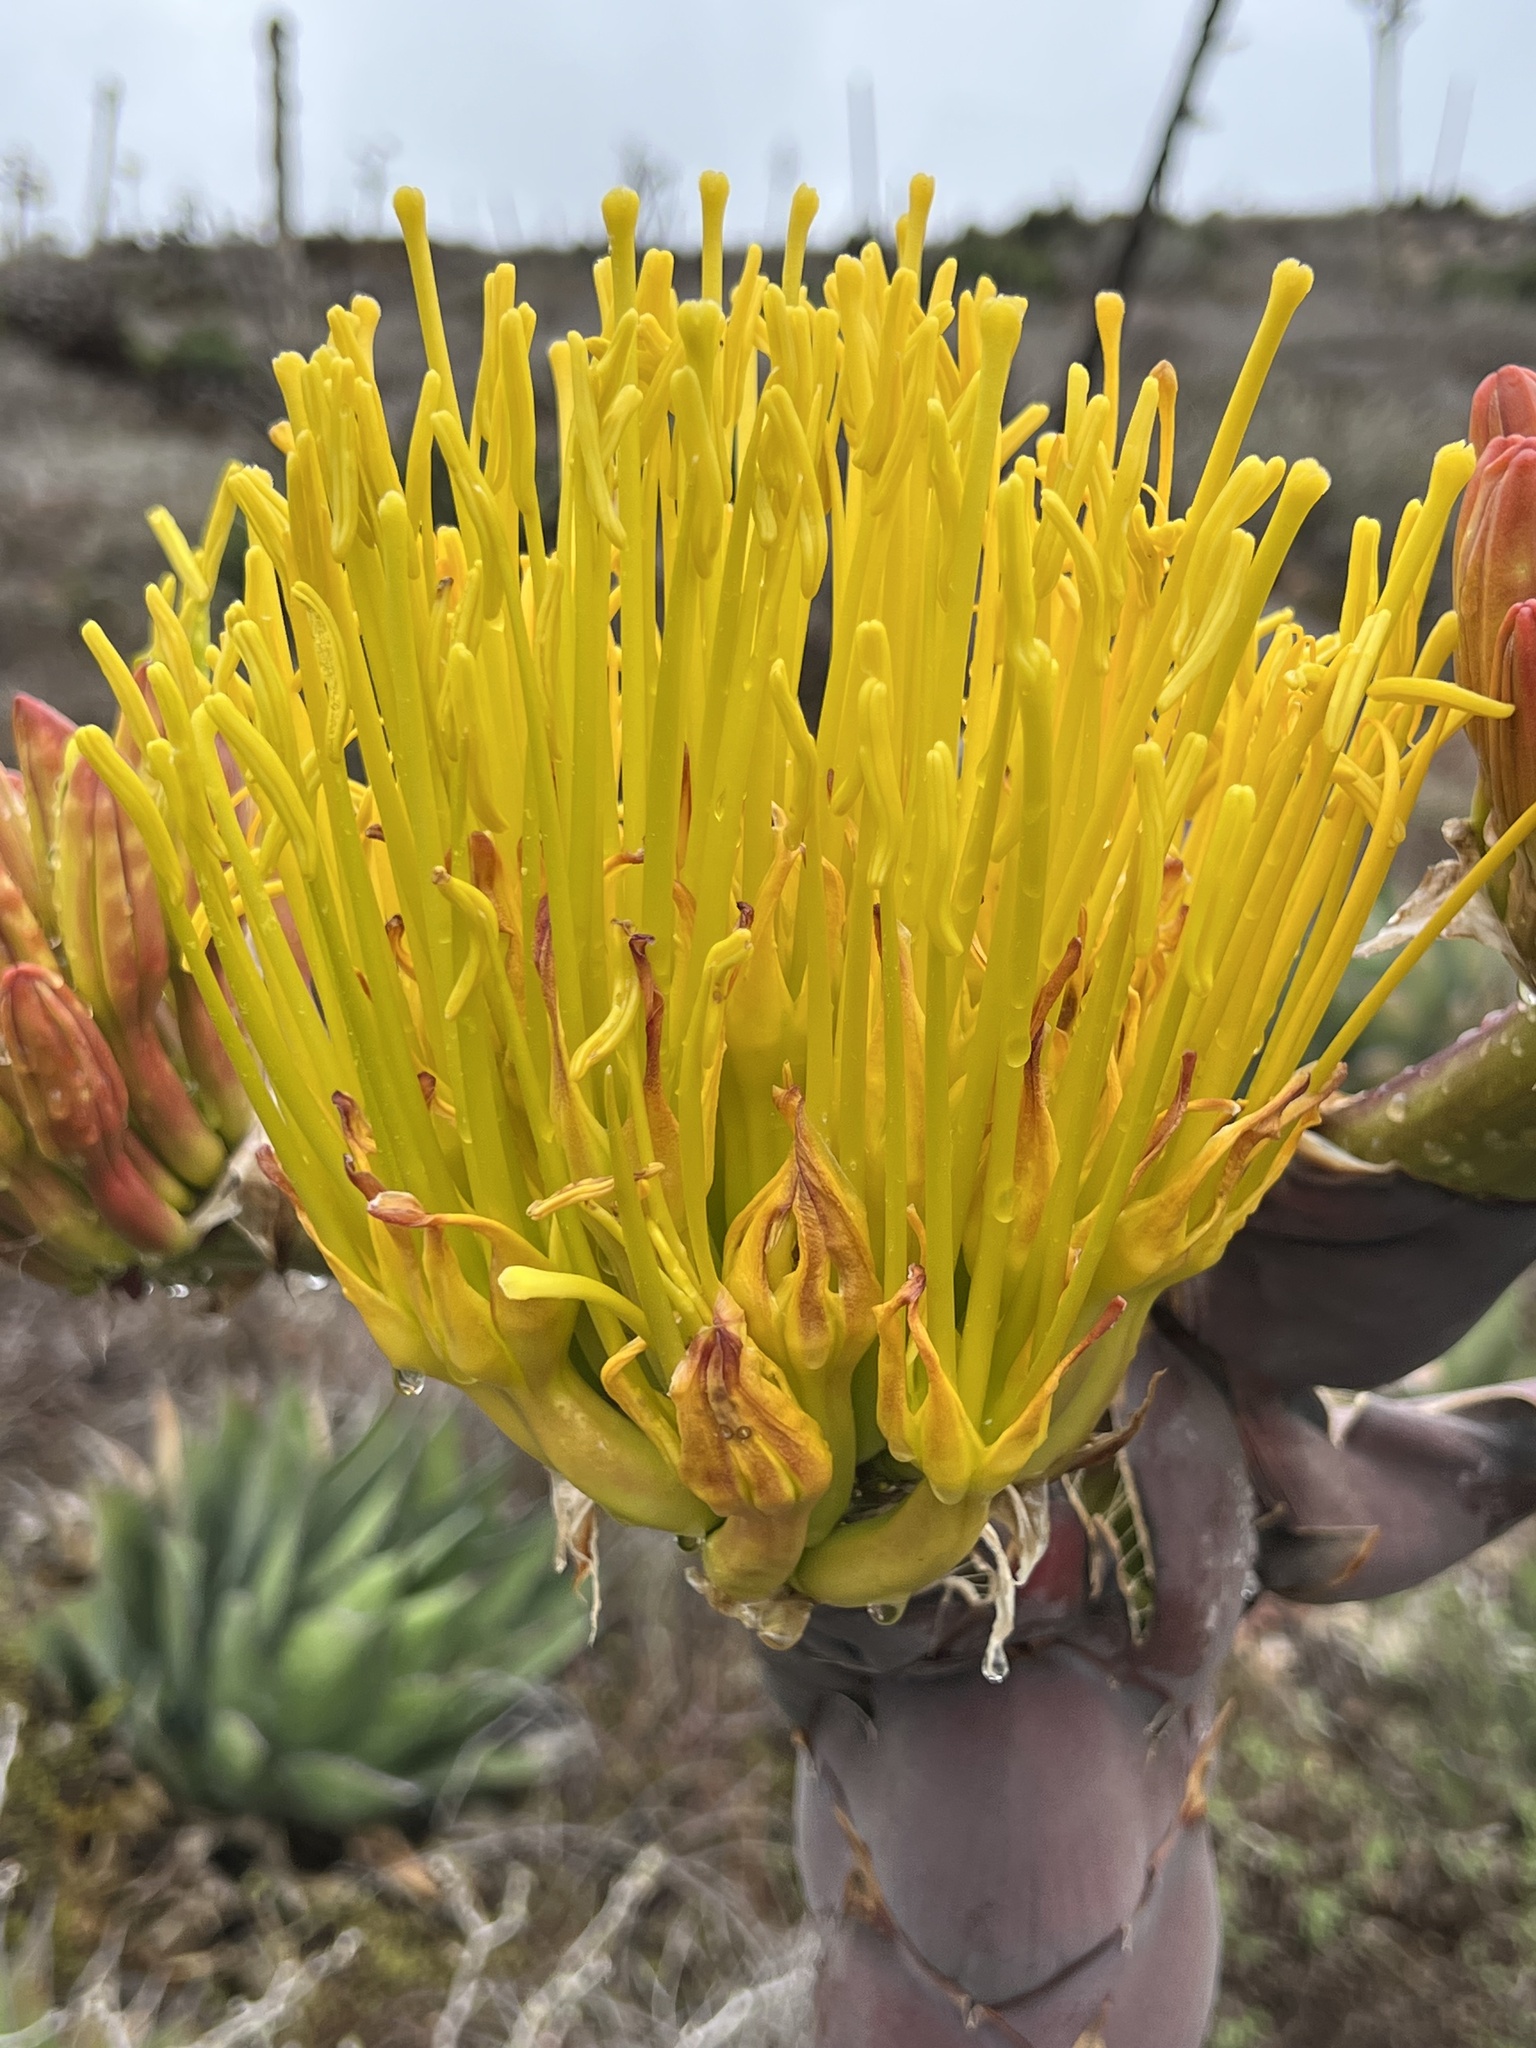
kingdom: Plantae
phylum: Tracheophyta
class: Liliopsida
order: Asparagales
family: Asparagaceae
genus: Agave
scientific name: Agave shawii
